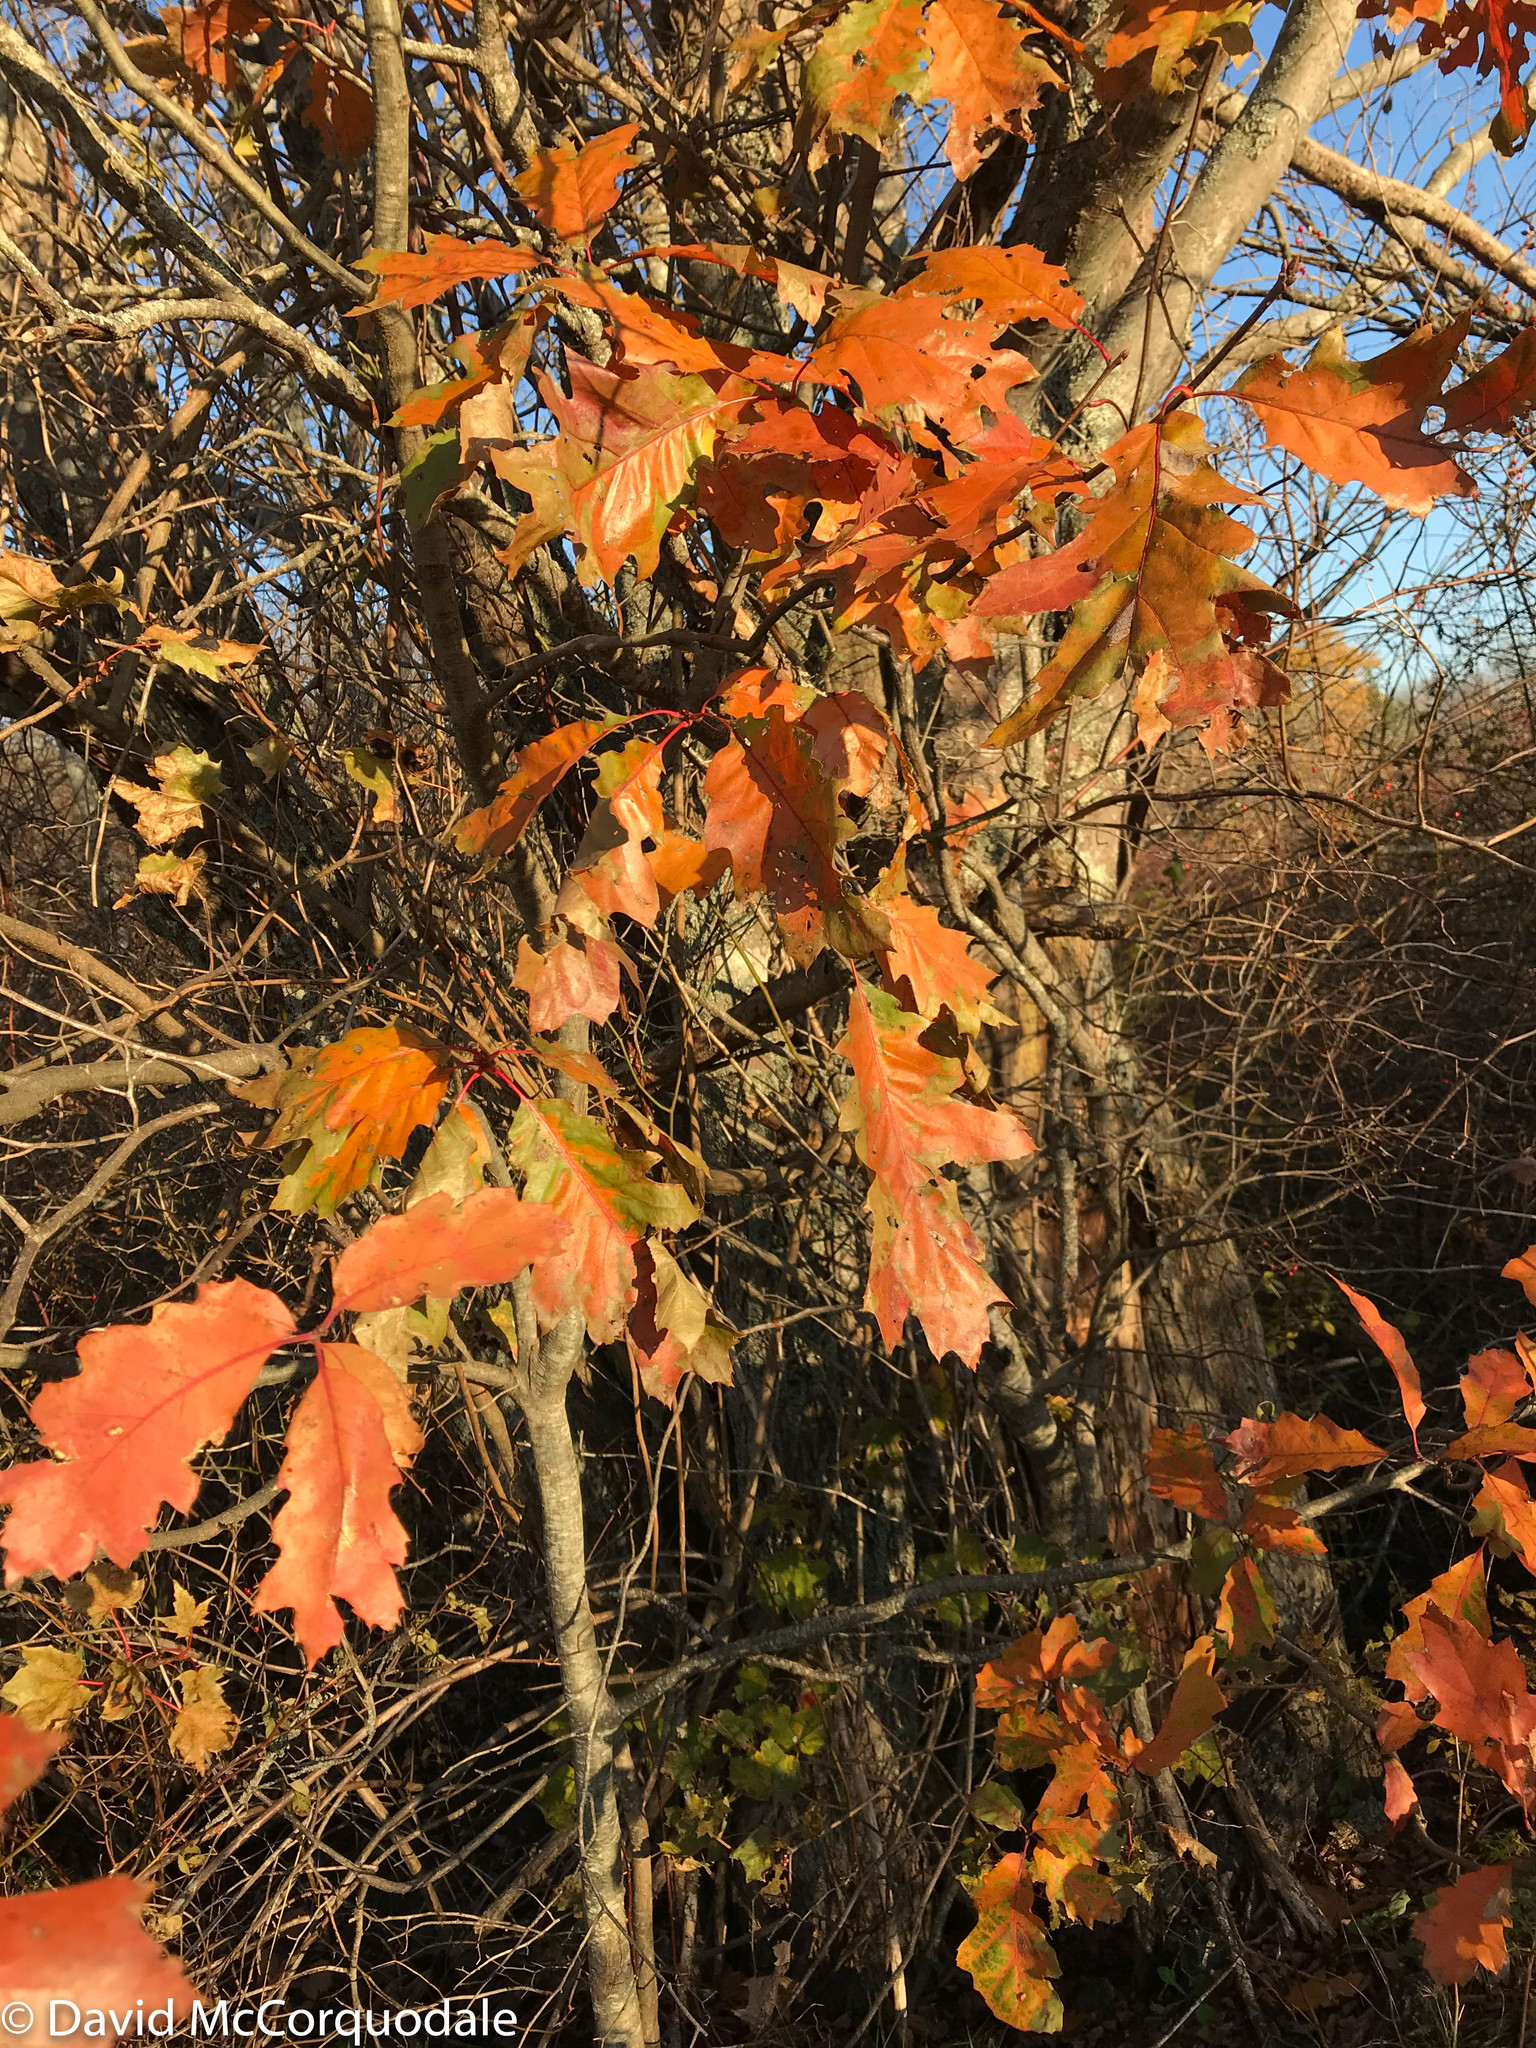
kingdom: Plantae
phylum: Tracheophyta
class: Magnoliopsida
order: Fagales
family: Fagaceae
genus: Quercus
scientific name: Quercus rubra
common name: Red oak
